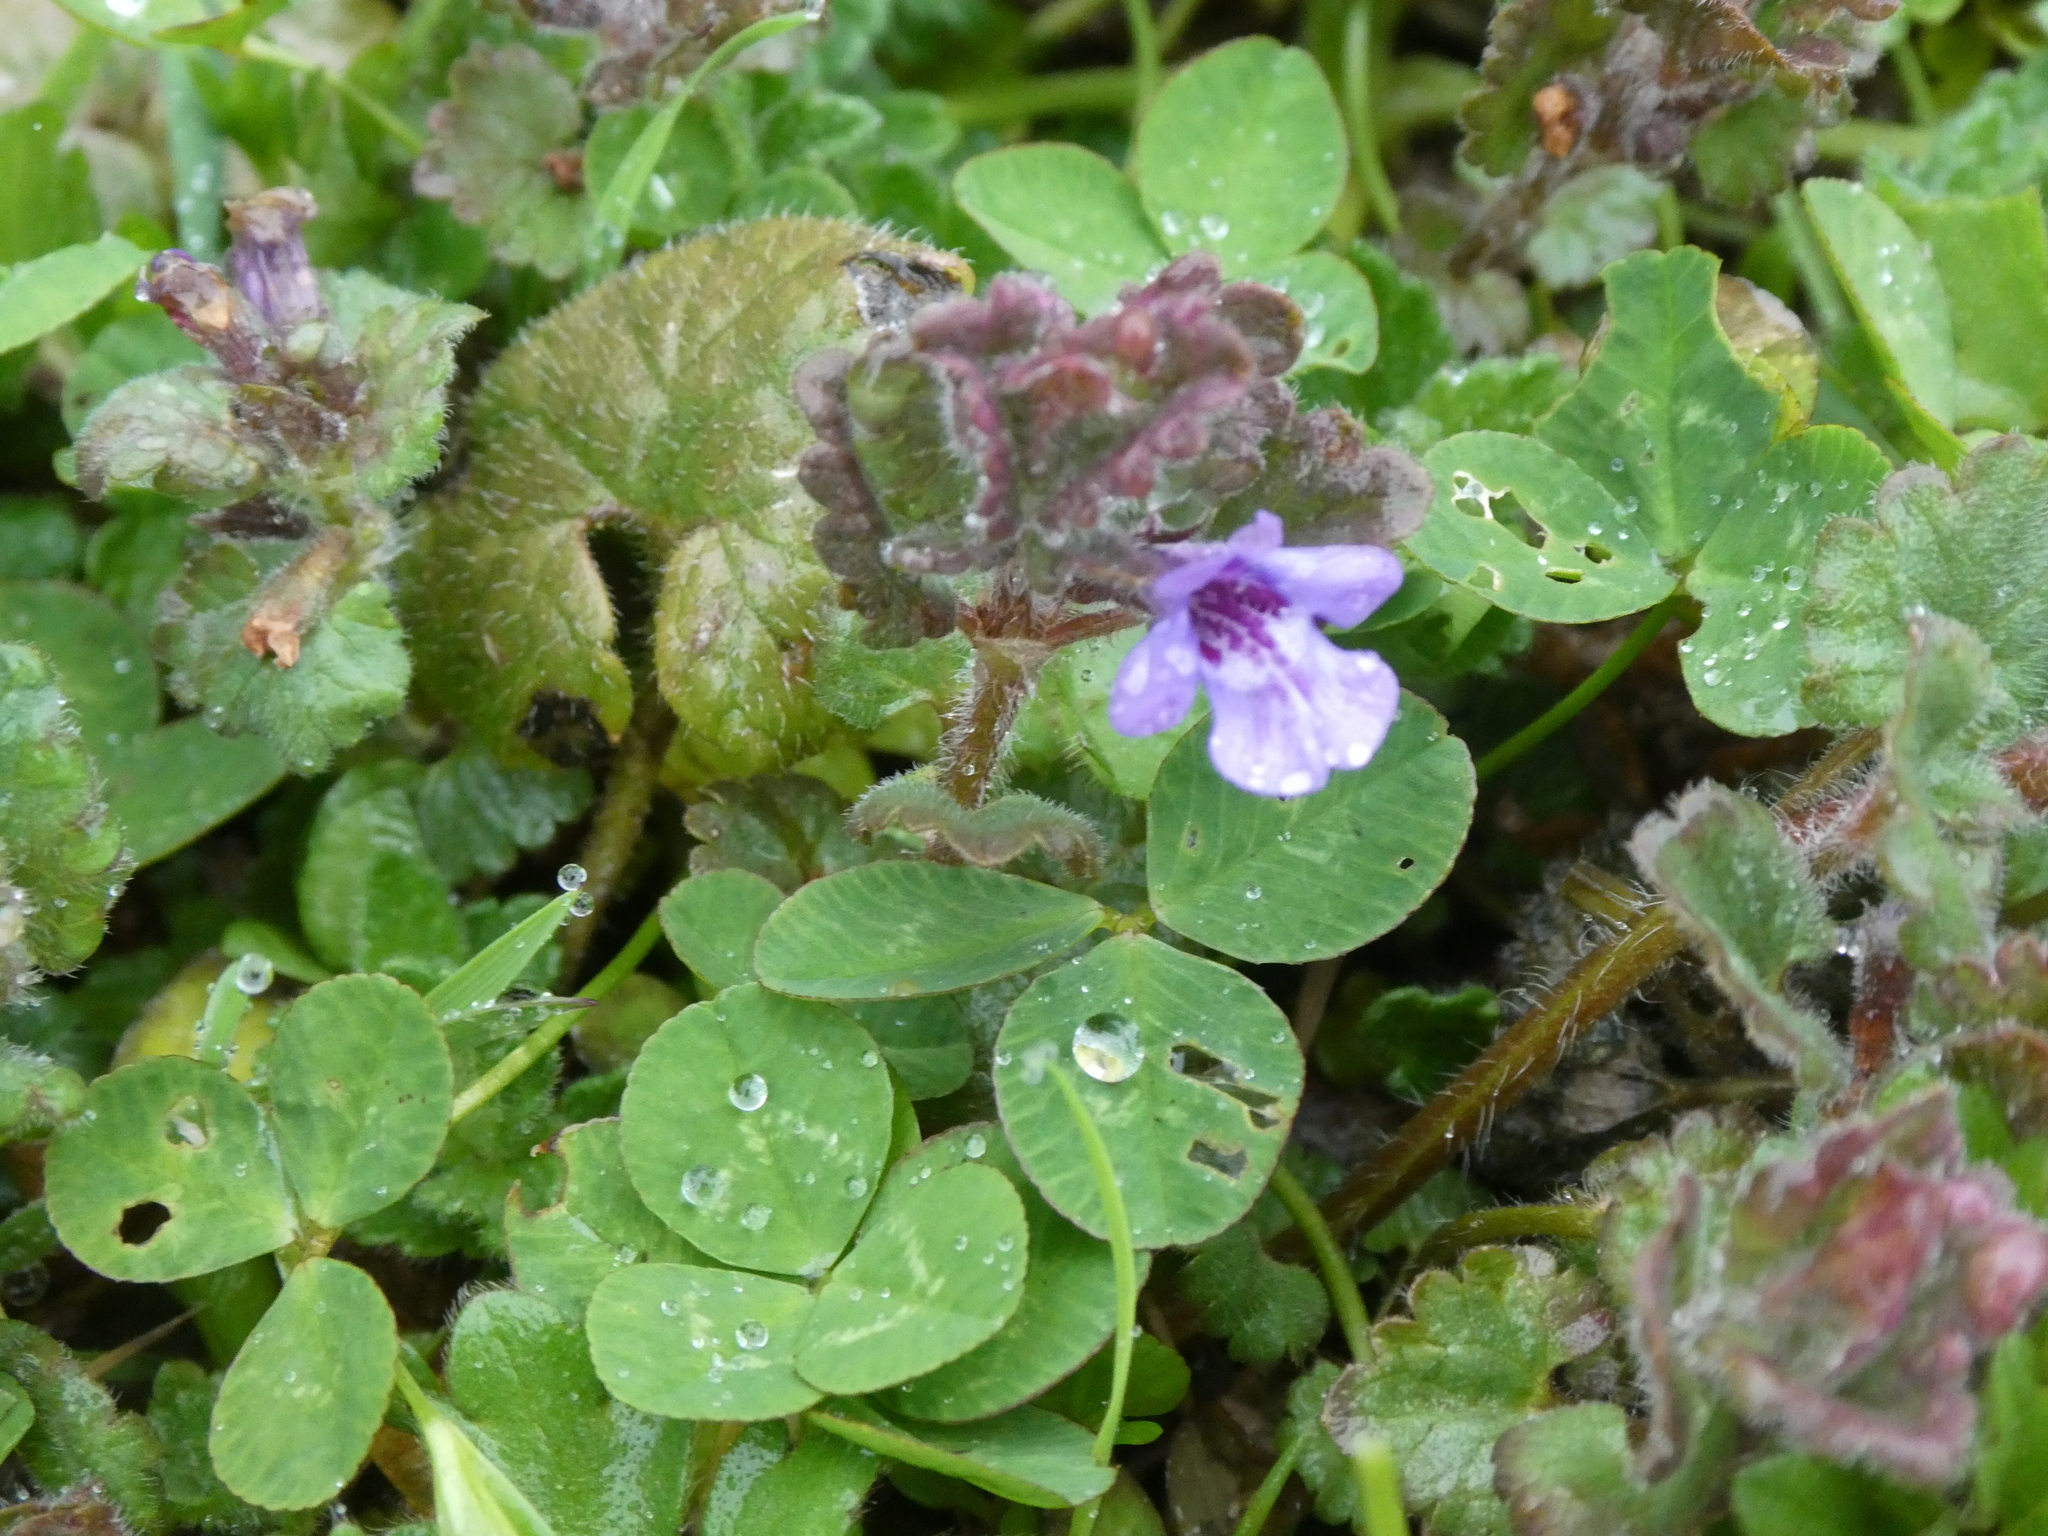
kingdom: Plantae
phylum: Tracheophyta
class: Magnoliopsida
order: Lamiales
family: Lamiaceae
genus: Glechoma
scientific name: Glechoma hederacea
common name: Ground ivy
